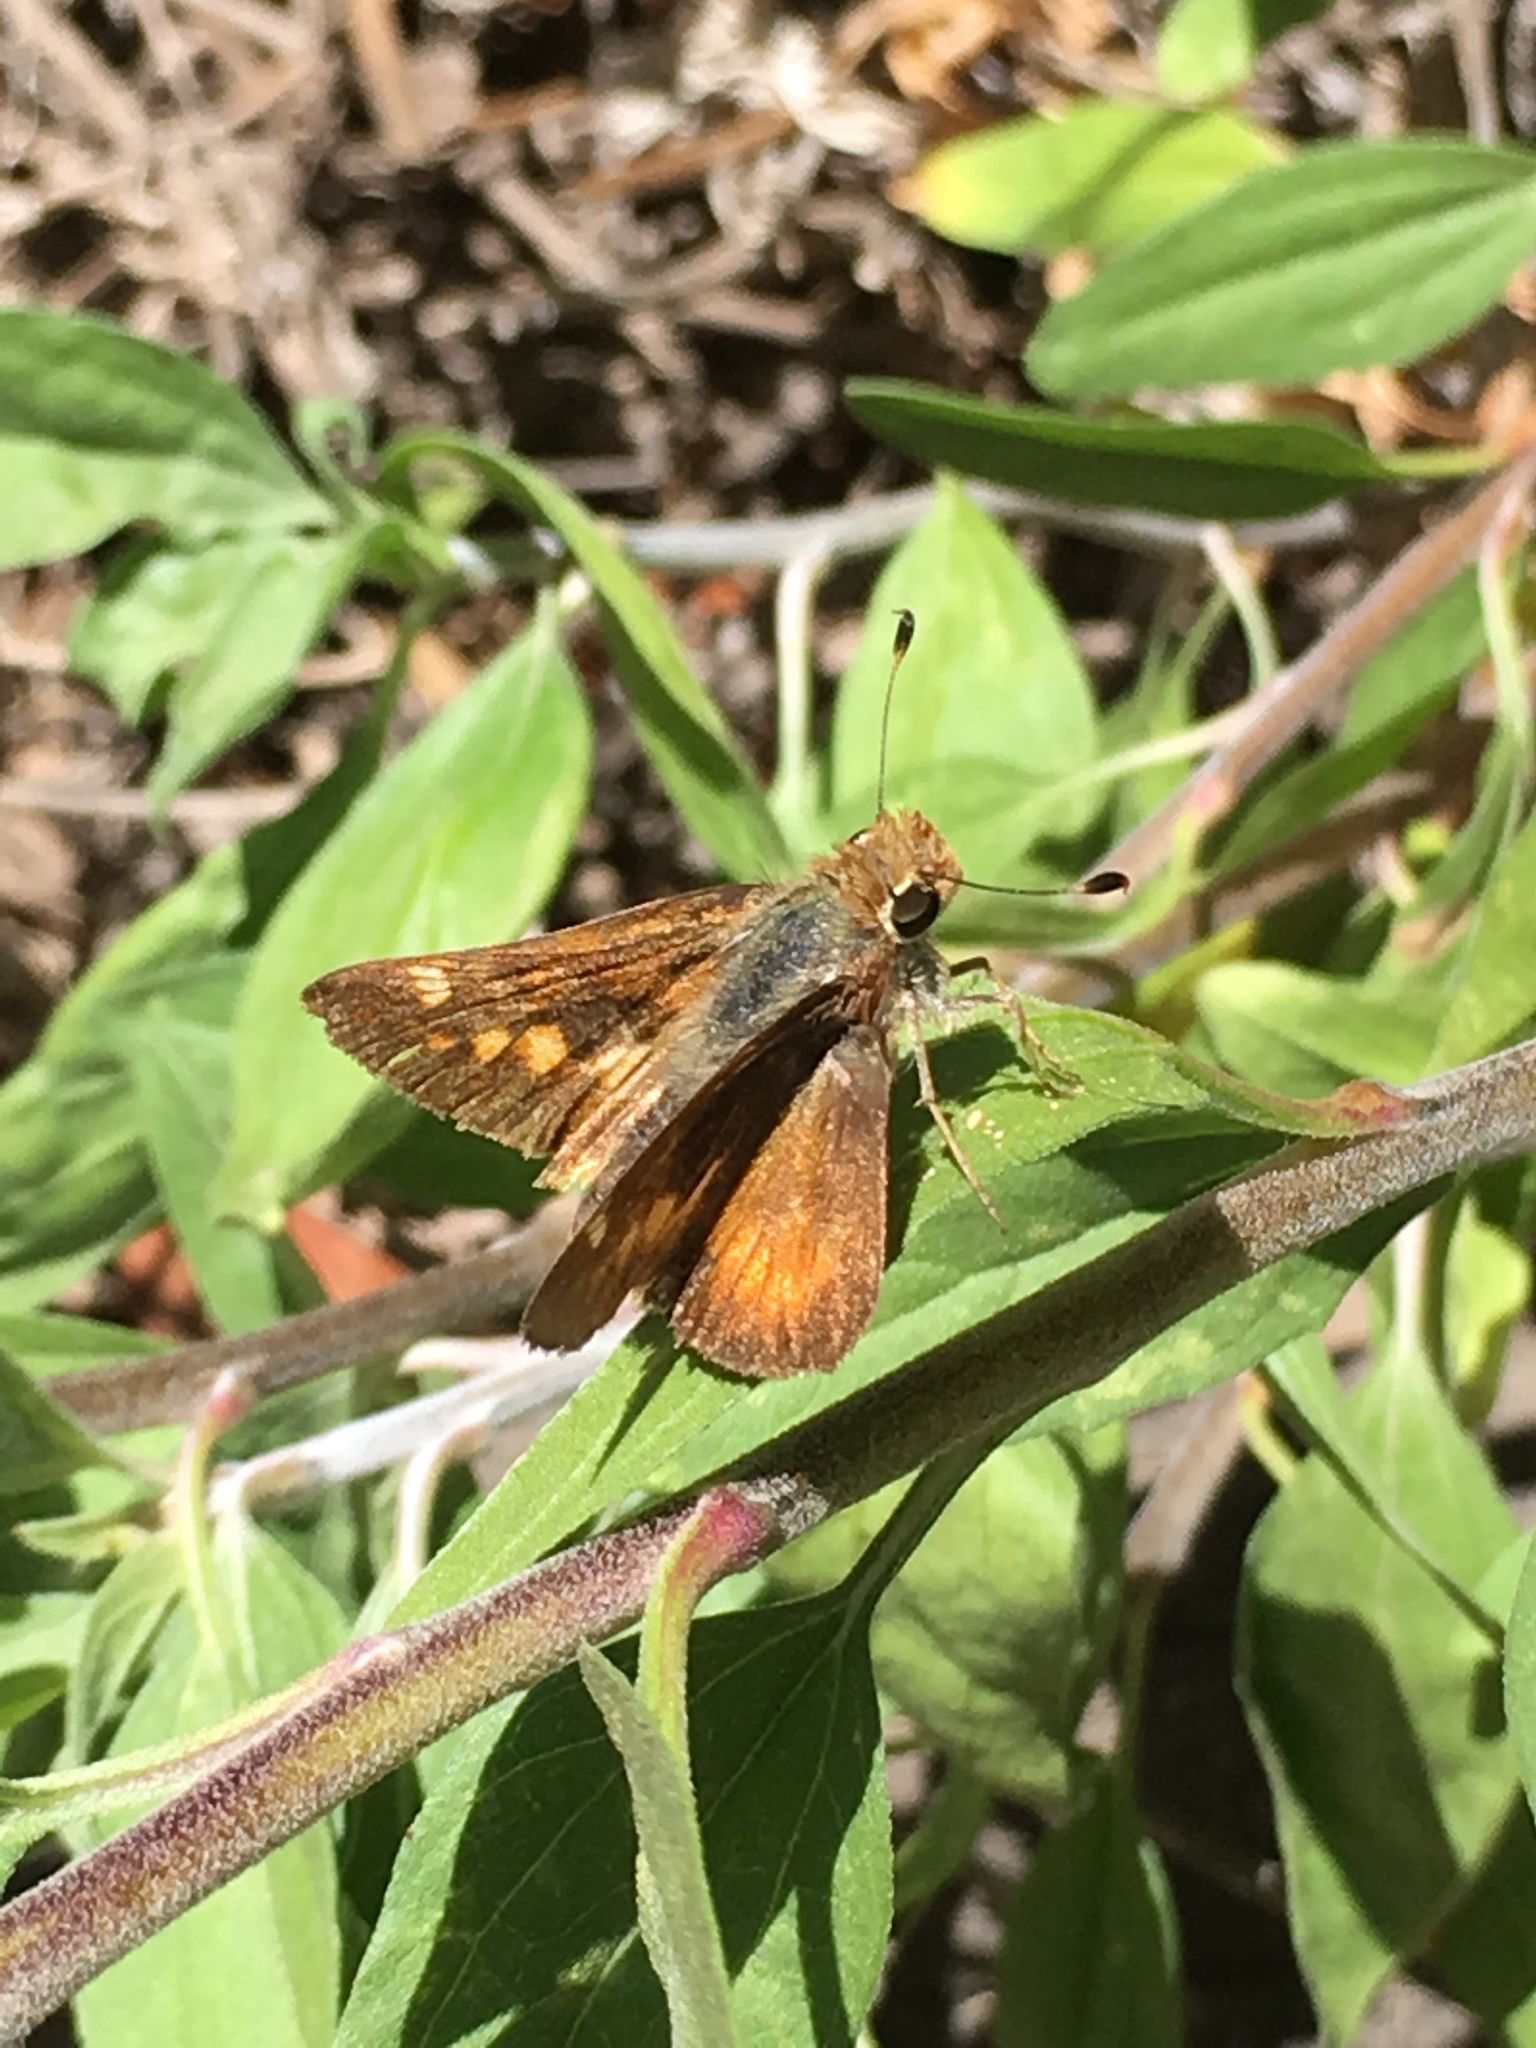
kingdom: Animalia
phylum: Arthropoda
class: Insecta
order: Lepidoptera
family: Hesperiidae
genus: Lon
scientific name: Lon melane
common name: Umber skipper
